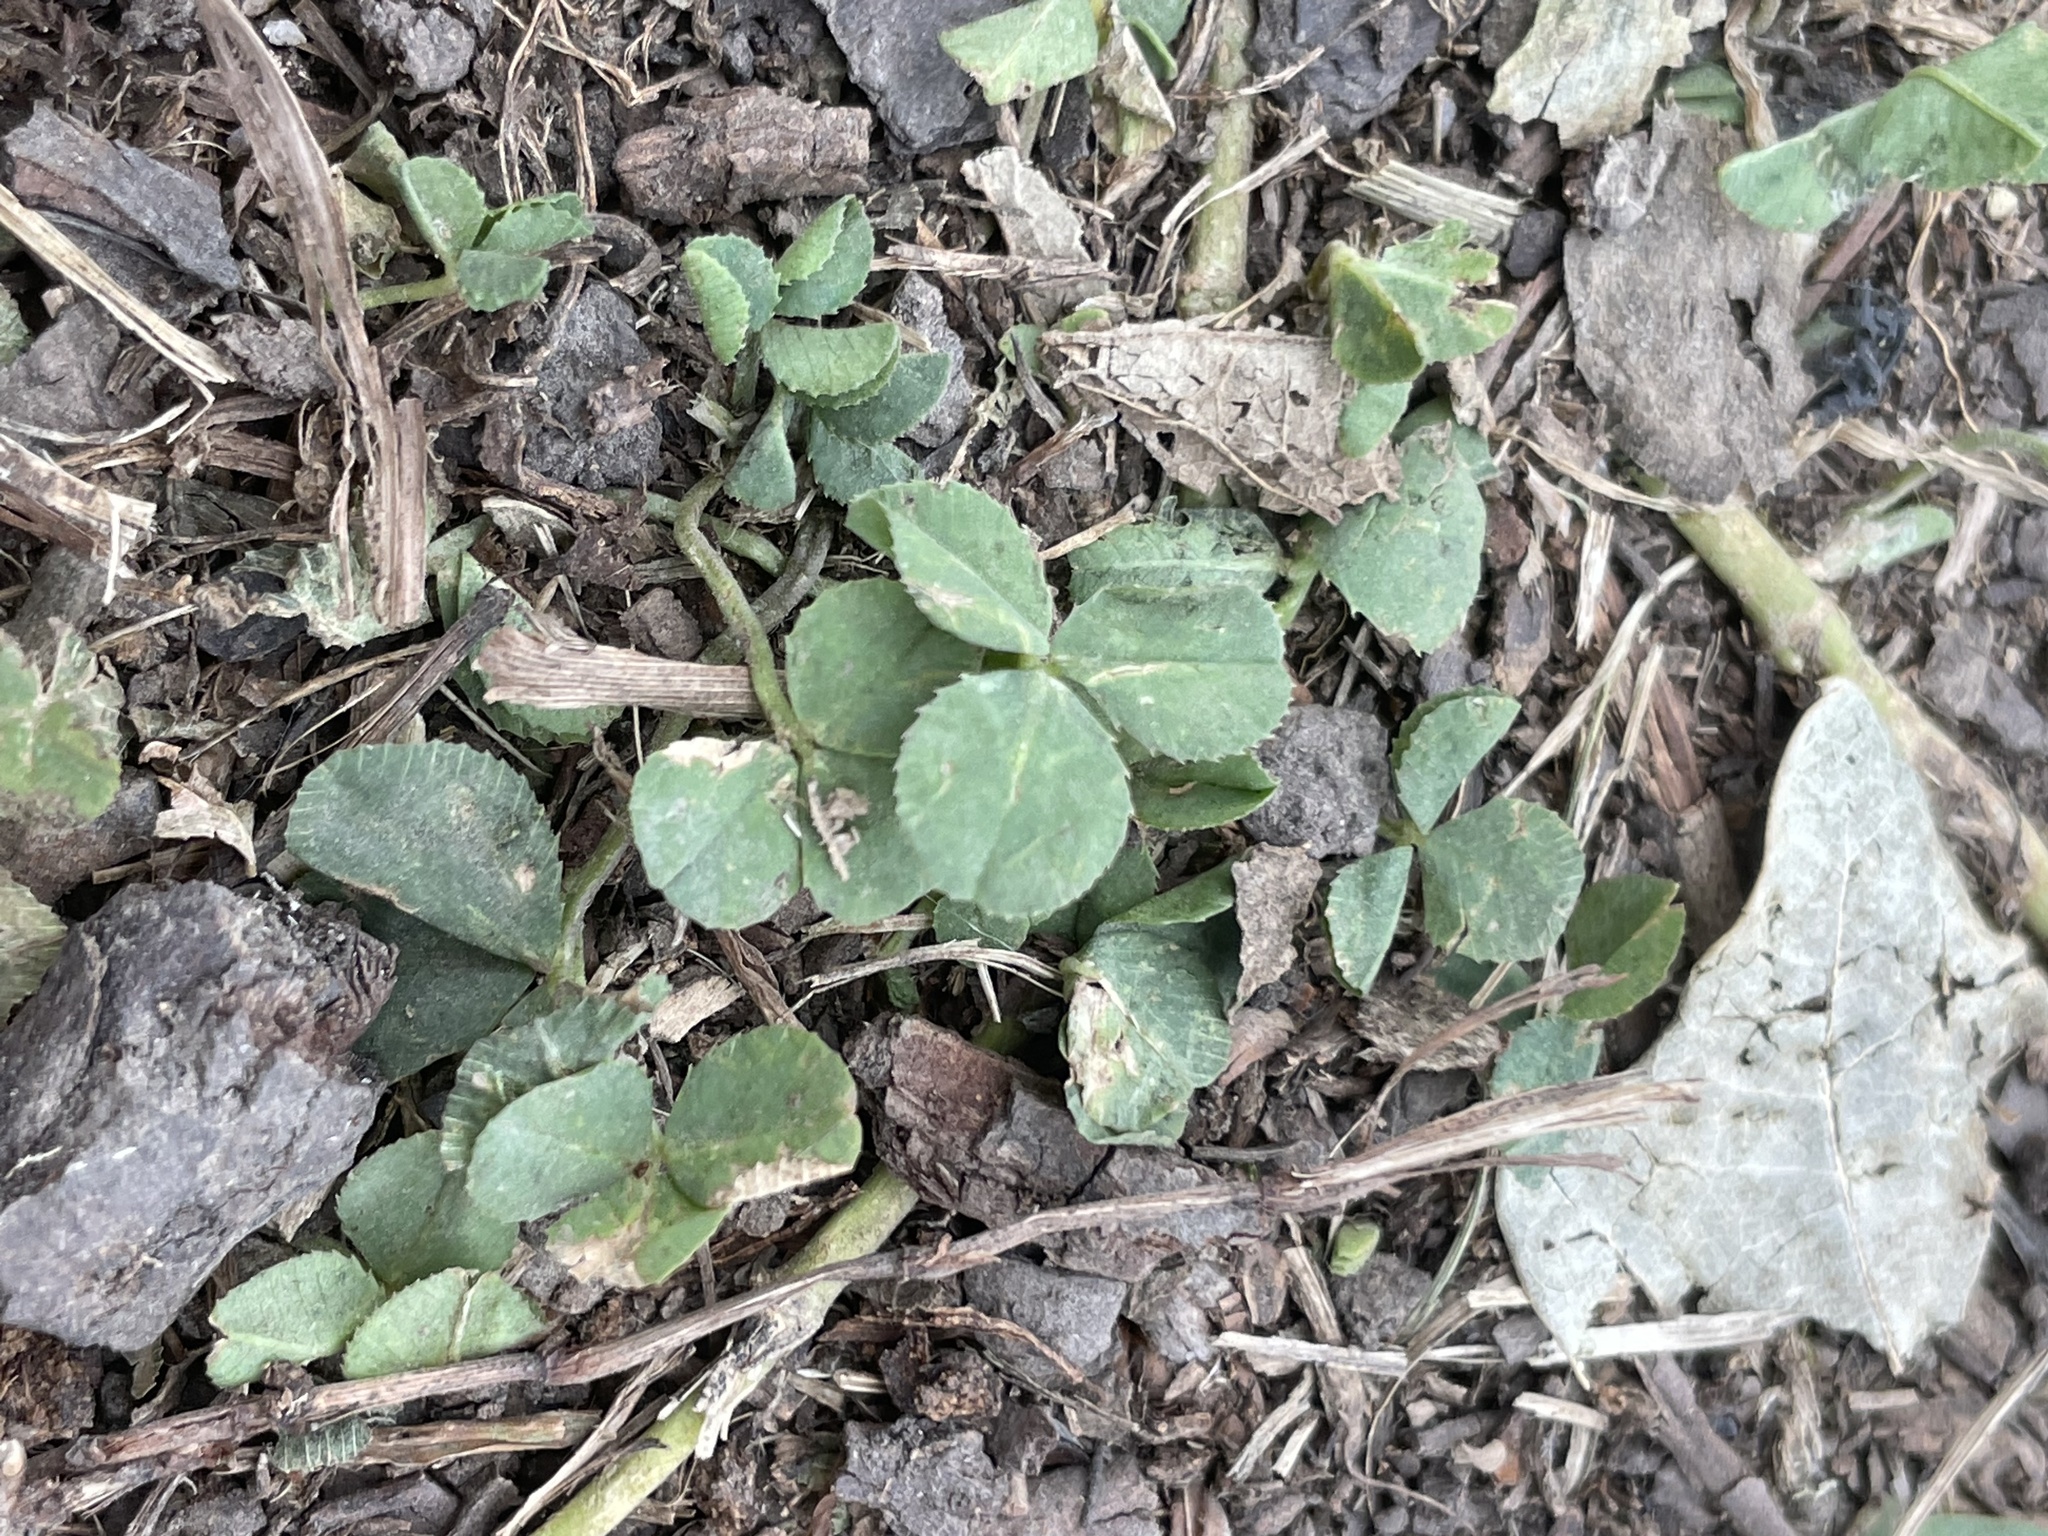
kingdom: Plantae
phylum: Tracheophyta
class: Magnoliopsida
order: Fabales
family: Fabaceae
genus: Trifolium
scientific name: Trifolium repens
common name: White clover
